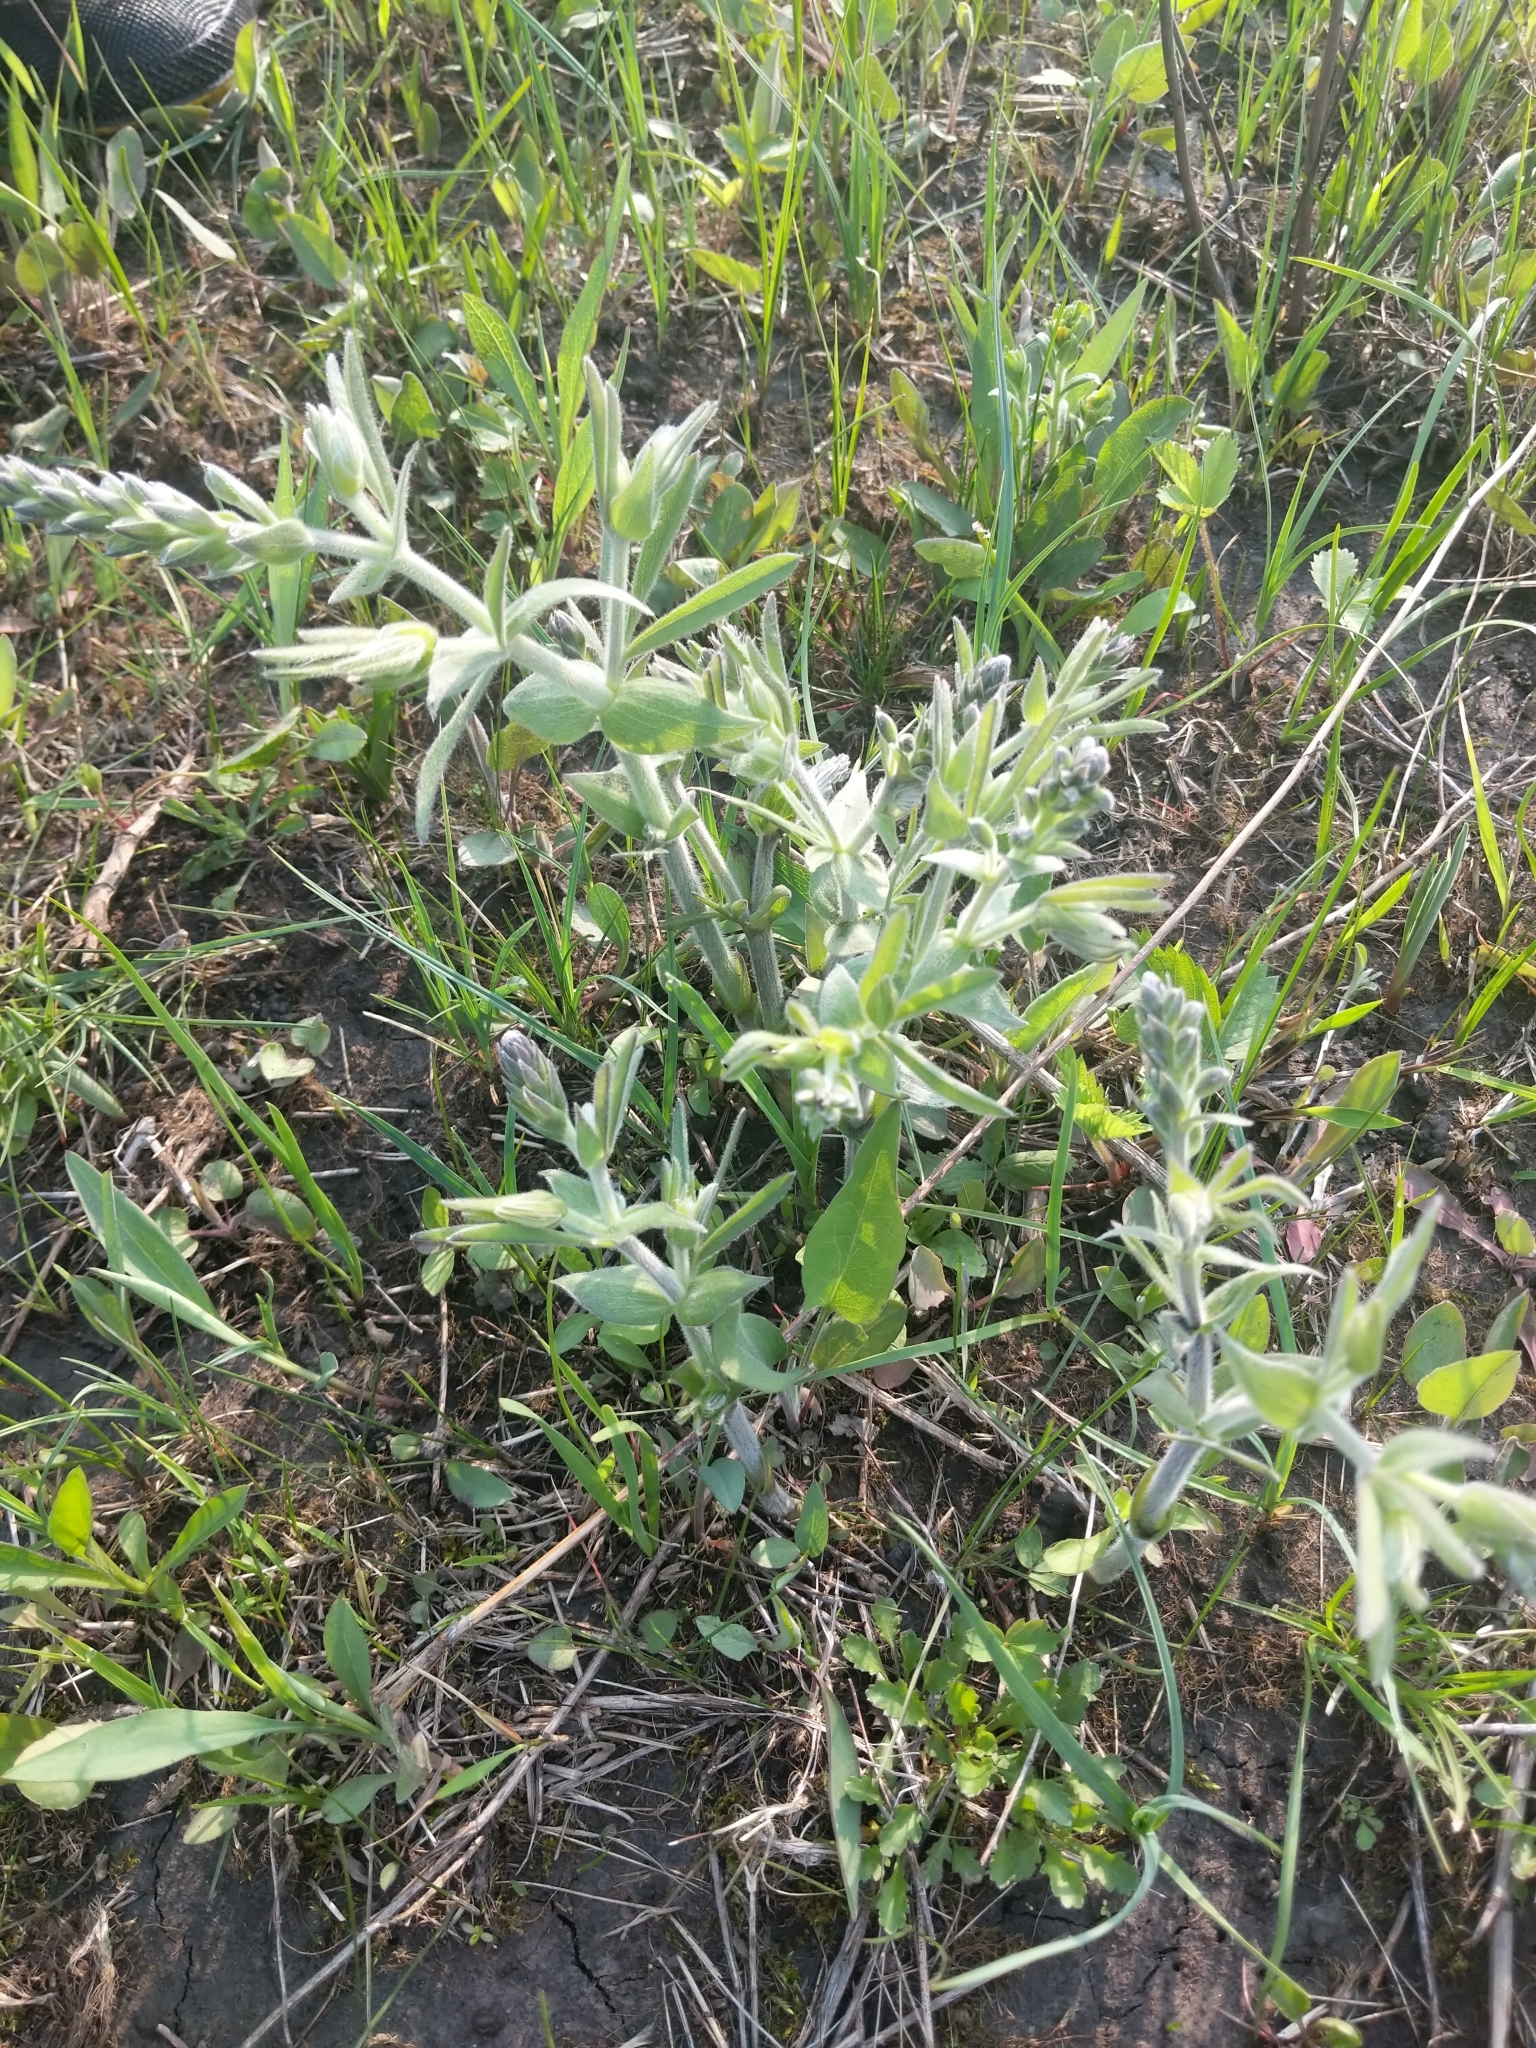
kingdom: Plantae
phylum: Tracheophyta
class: Magnoliopsida
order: Fabales
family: Fabaceae
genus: Baptisia
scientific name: Baptisia bracteata
